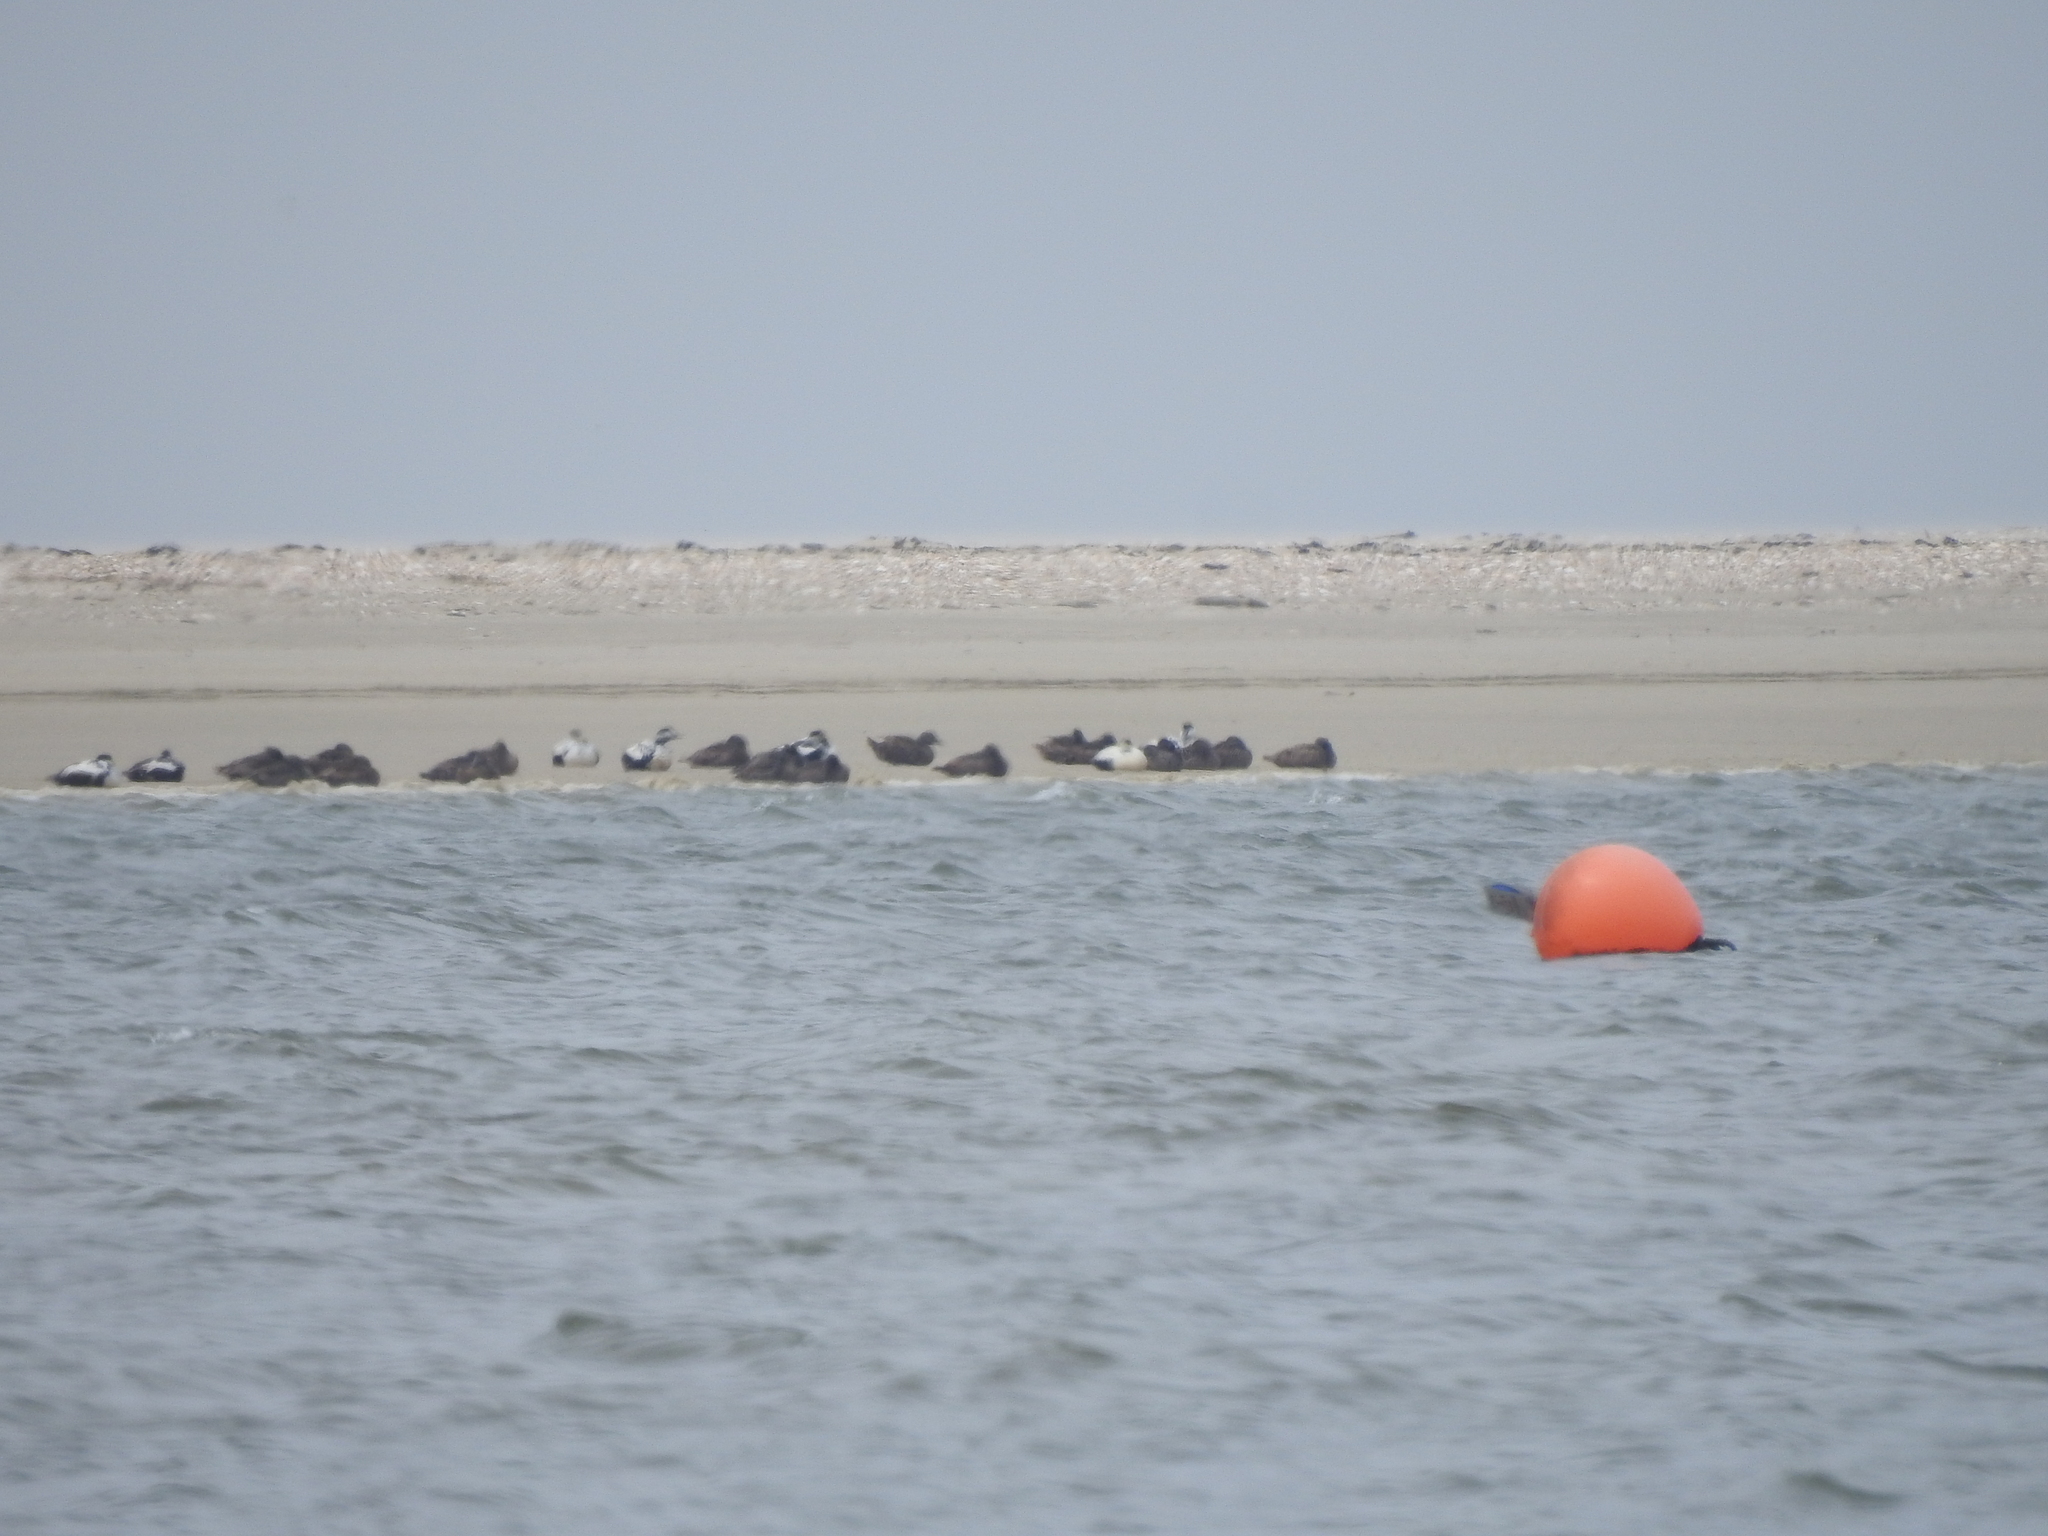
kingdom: Animalia
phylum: Chordata
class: Aves
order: Anseriformes
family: Anatidae
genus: Somateria
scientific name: Somateria mollissima
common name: Common eider
